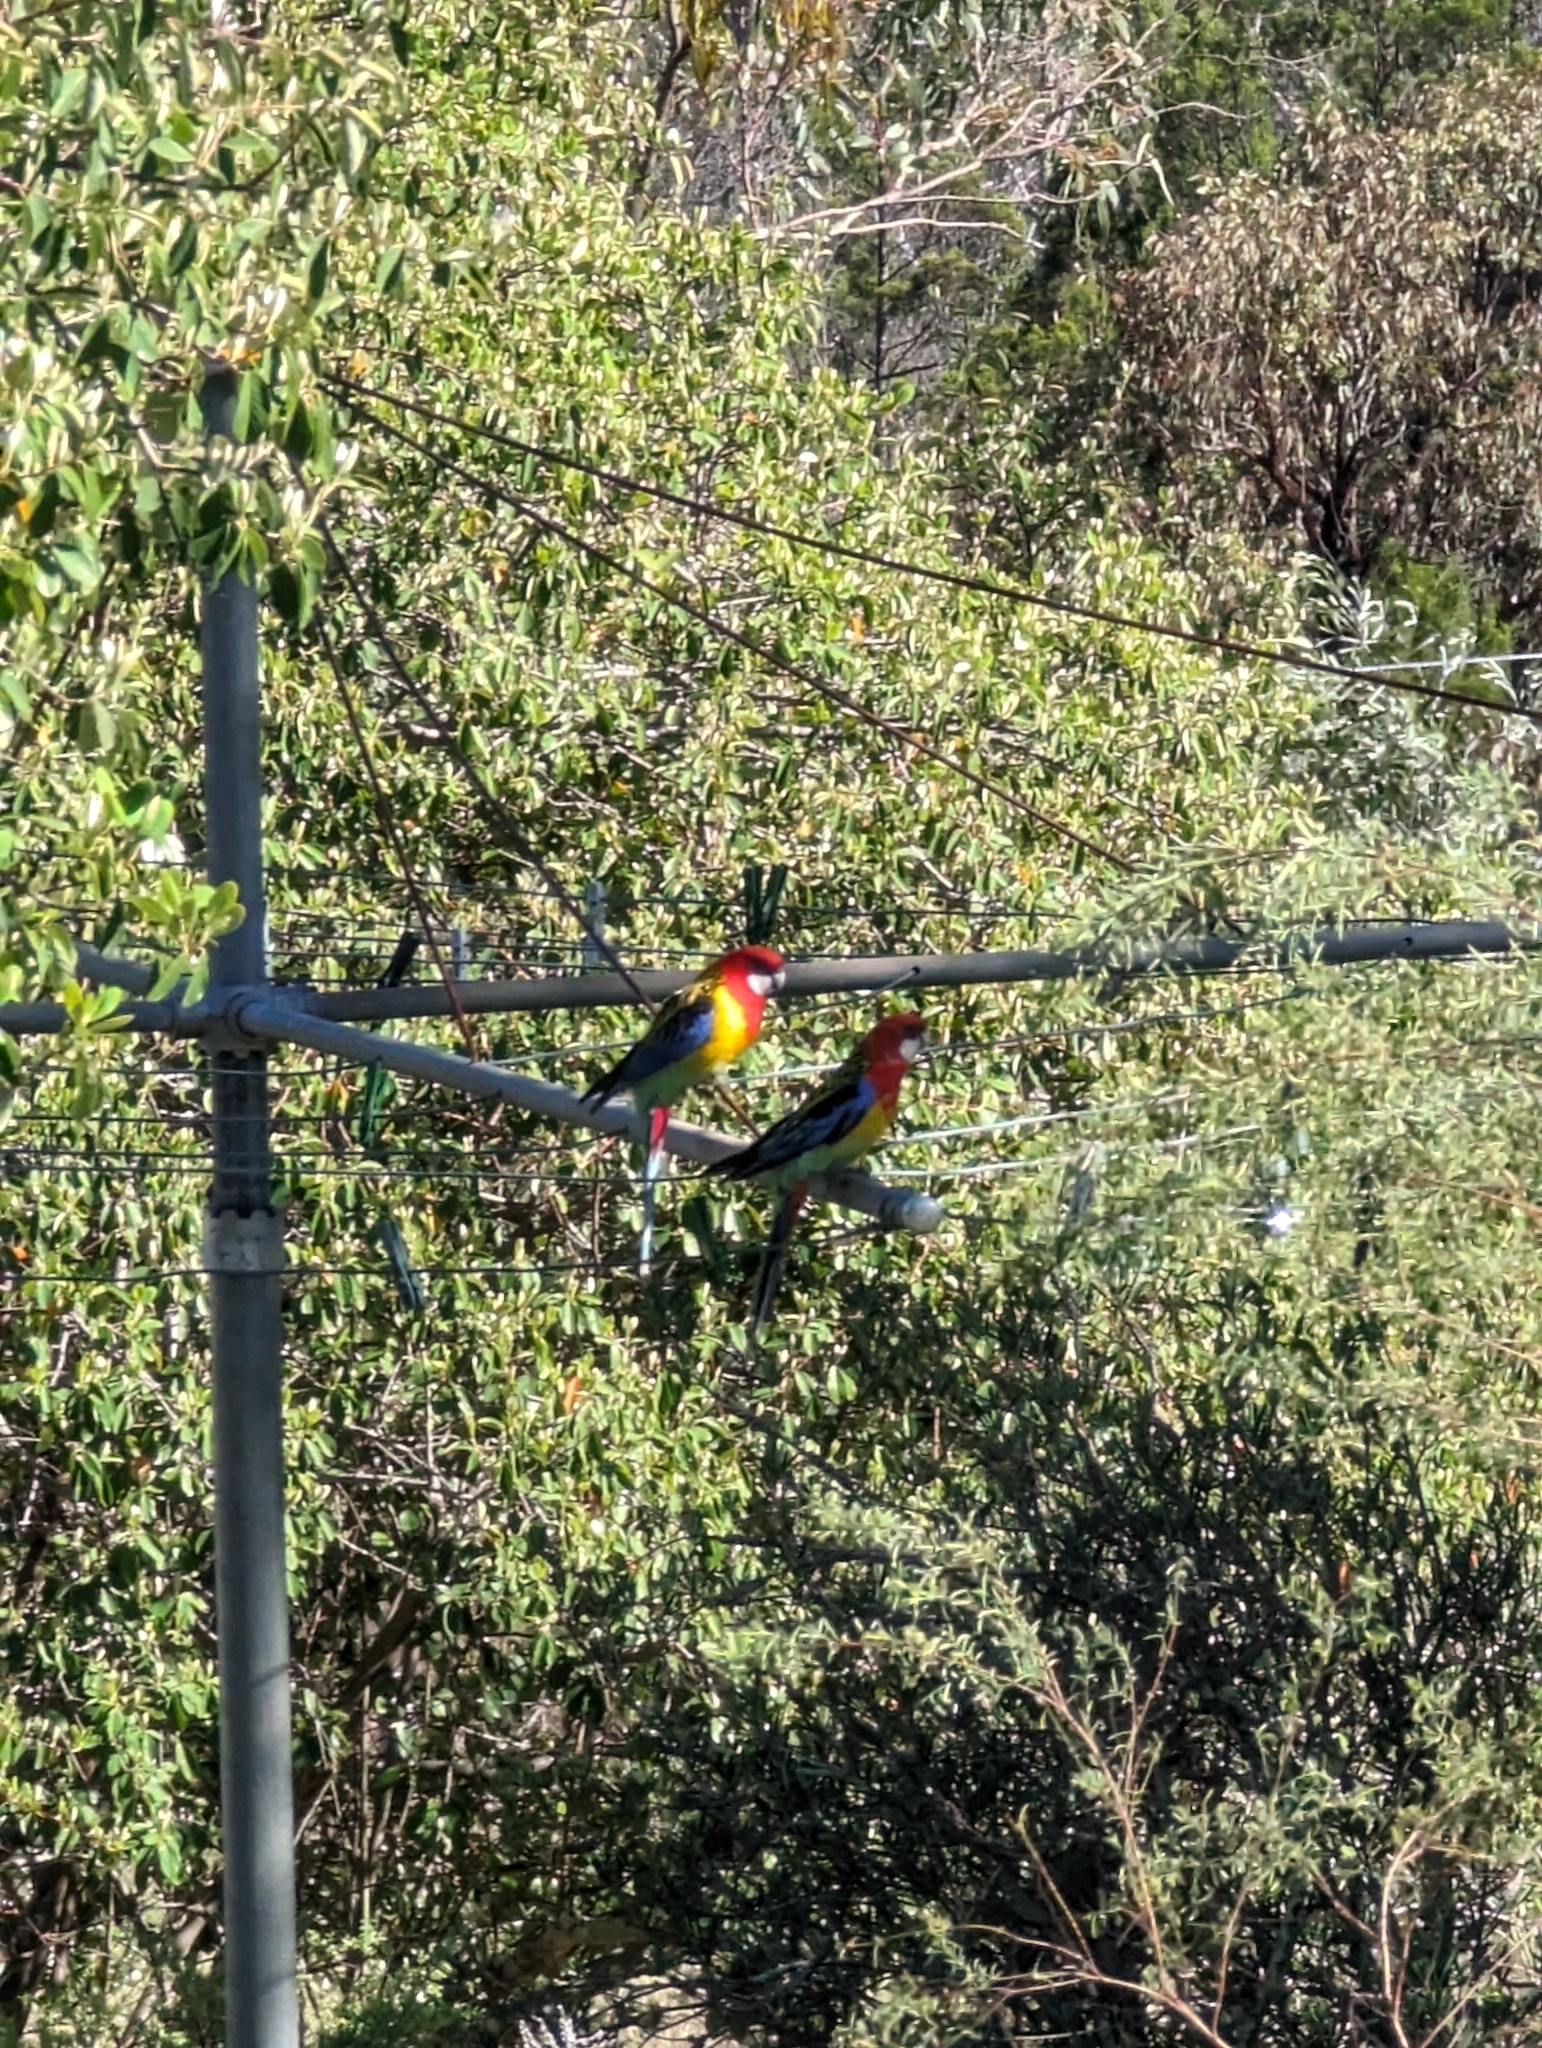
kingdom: Animalia
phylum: Chordata
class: Aves
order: Psittaciformes
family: Psittacidae
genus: Platycercus
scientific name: Platycercus eximius
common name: Eastern rosella
